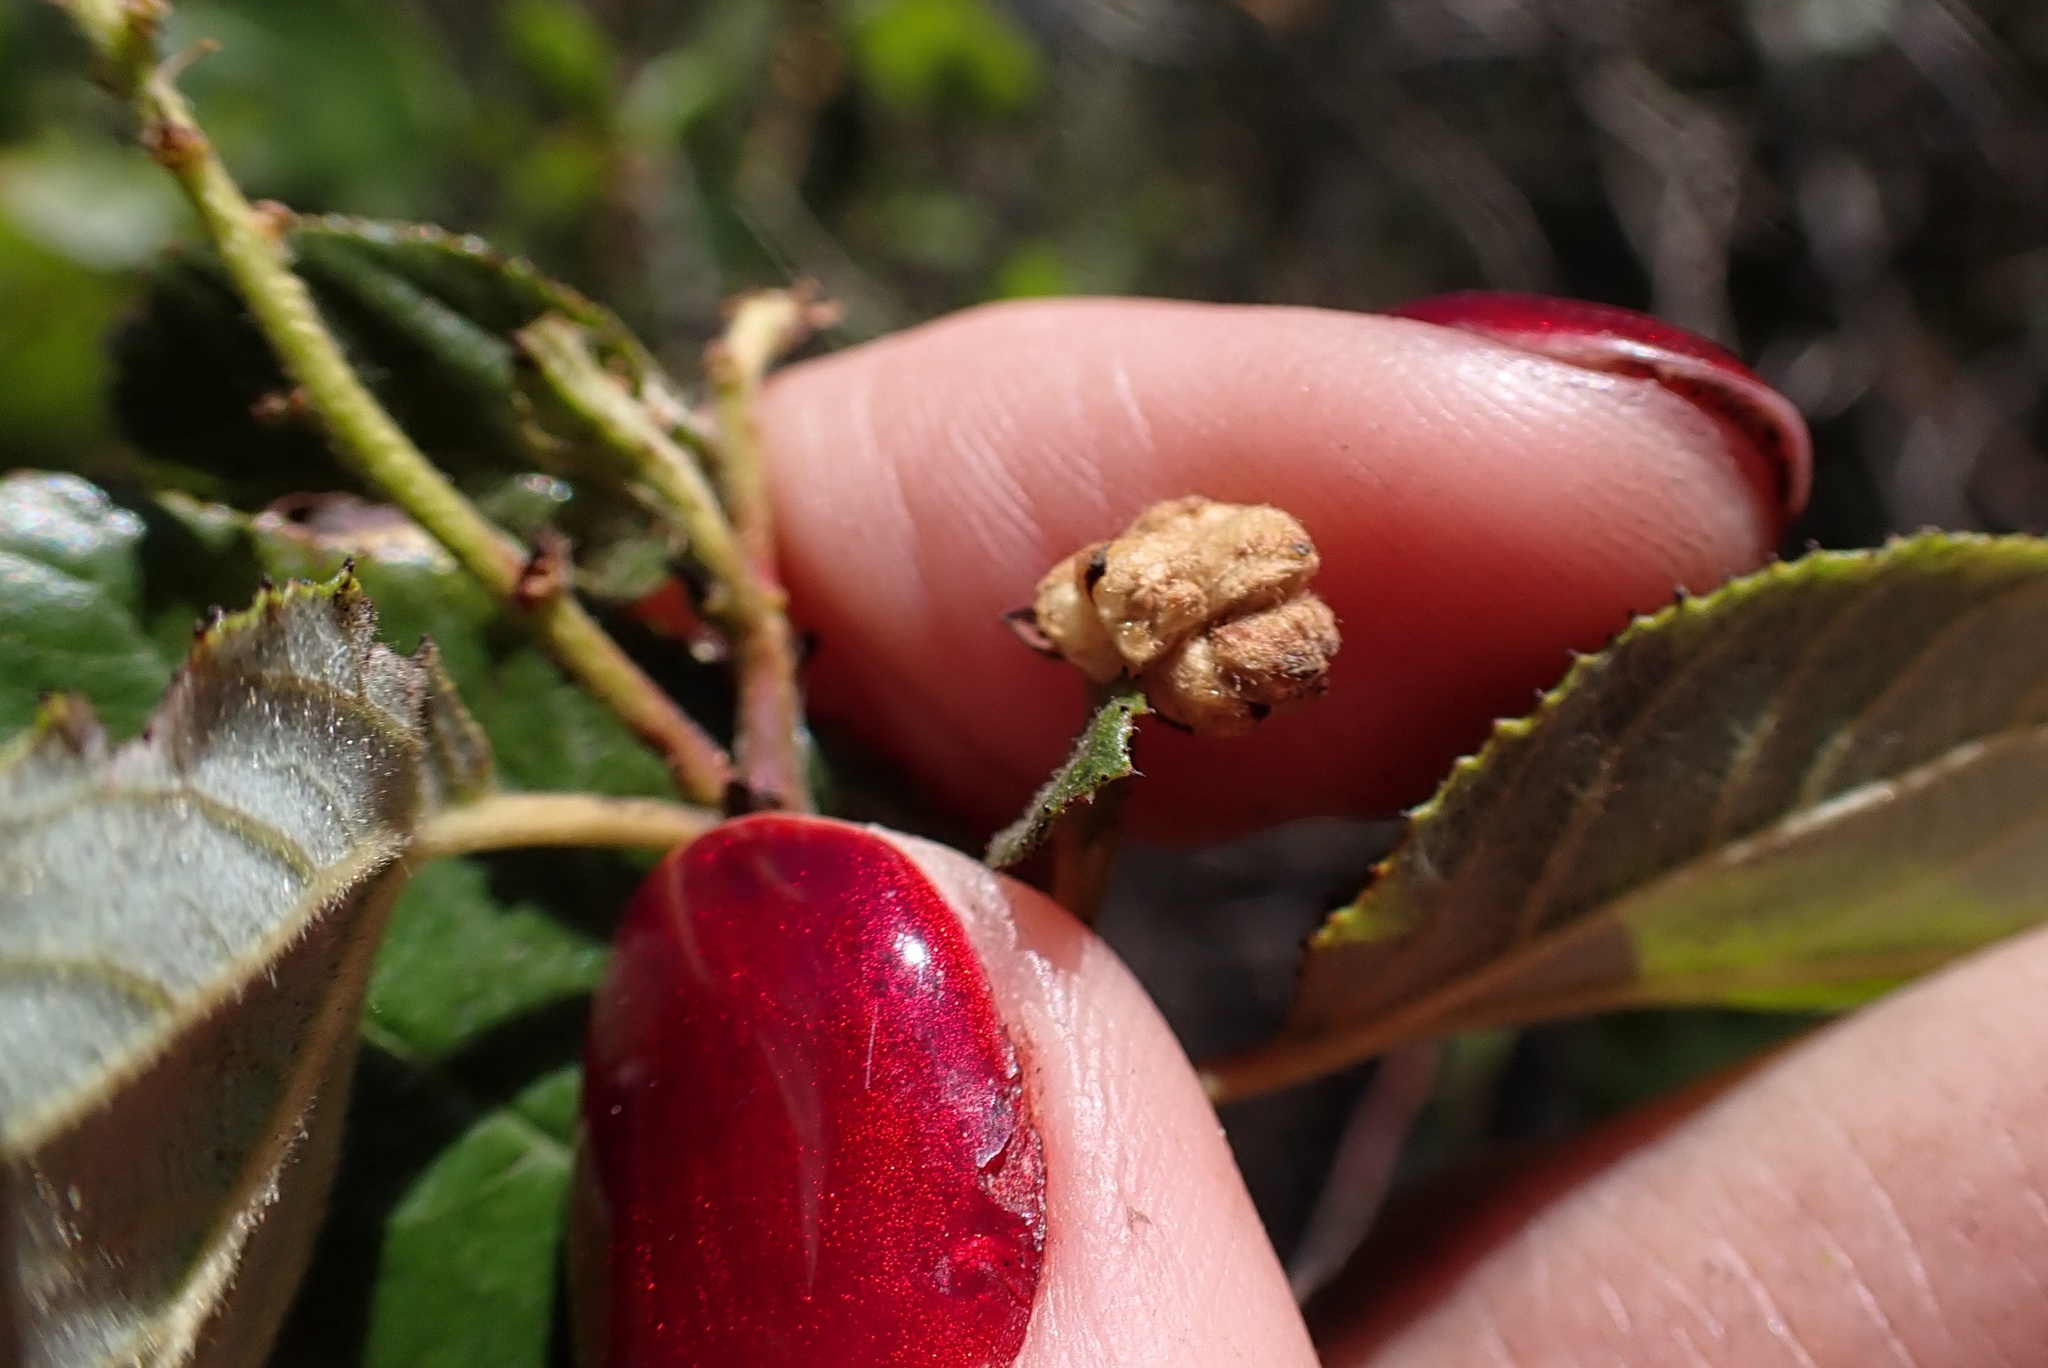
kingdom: Plantae
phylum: Tracheophyta
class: Magnoliopsida
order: Rosales
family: Rhamnaceae
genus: Ceanothus
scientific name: Ceanothus oliganthus
